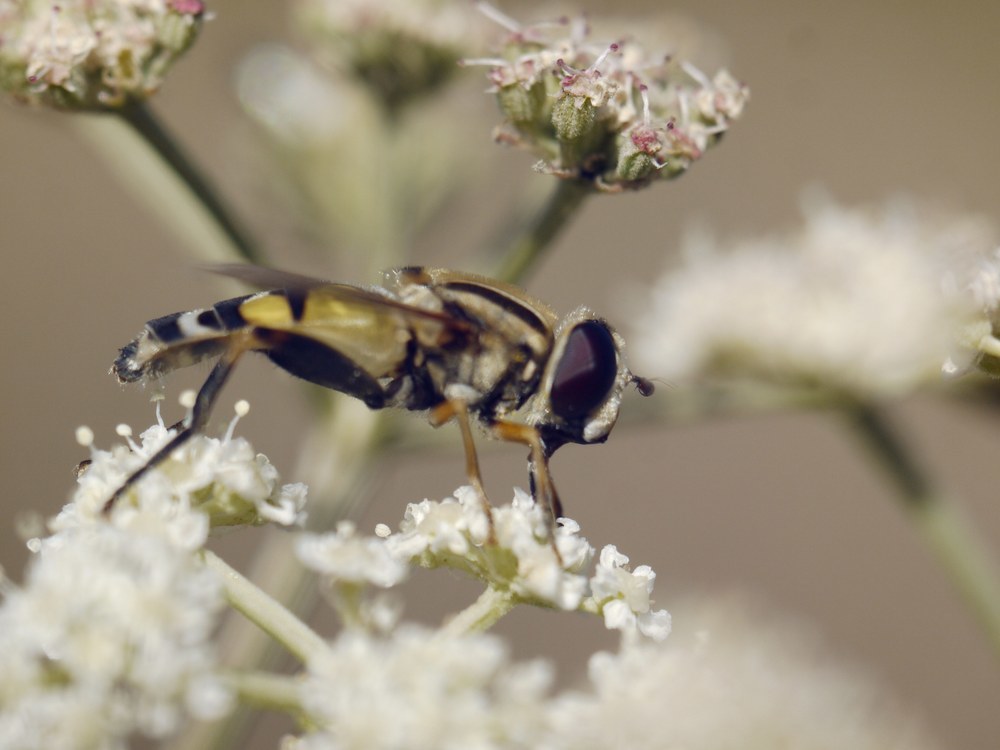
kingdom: Animalia
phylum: Arthropoda
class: Insecta
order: Diptera
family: Syrphidae
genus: Helophilus
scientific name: Helophilus trivittatus
